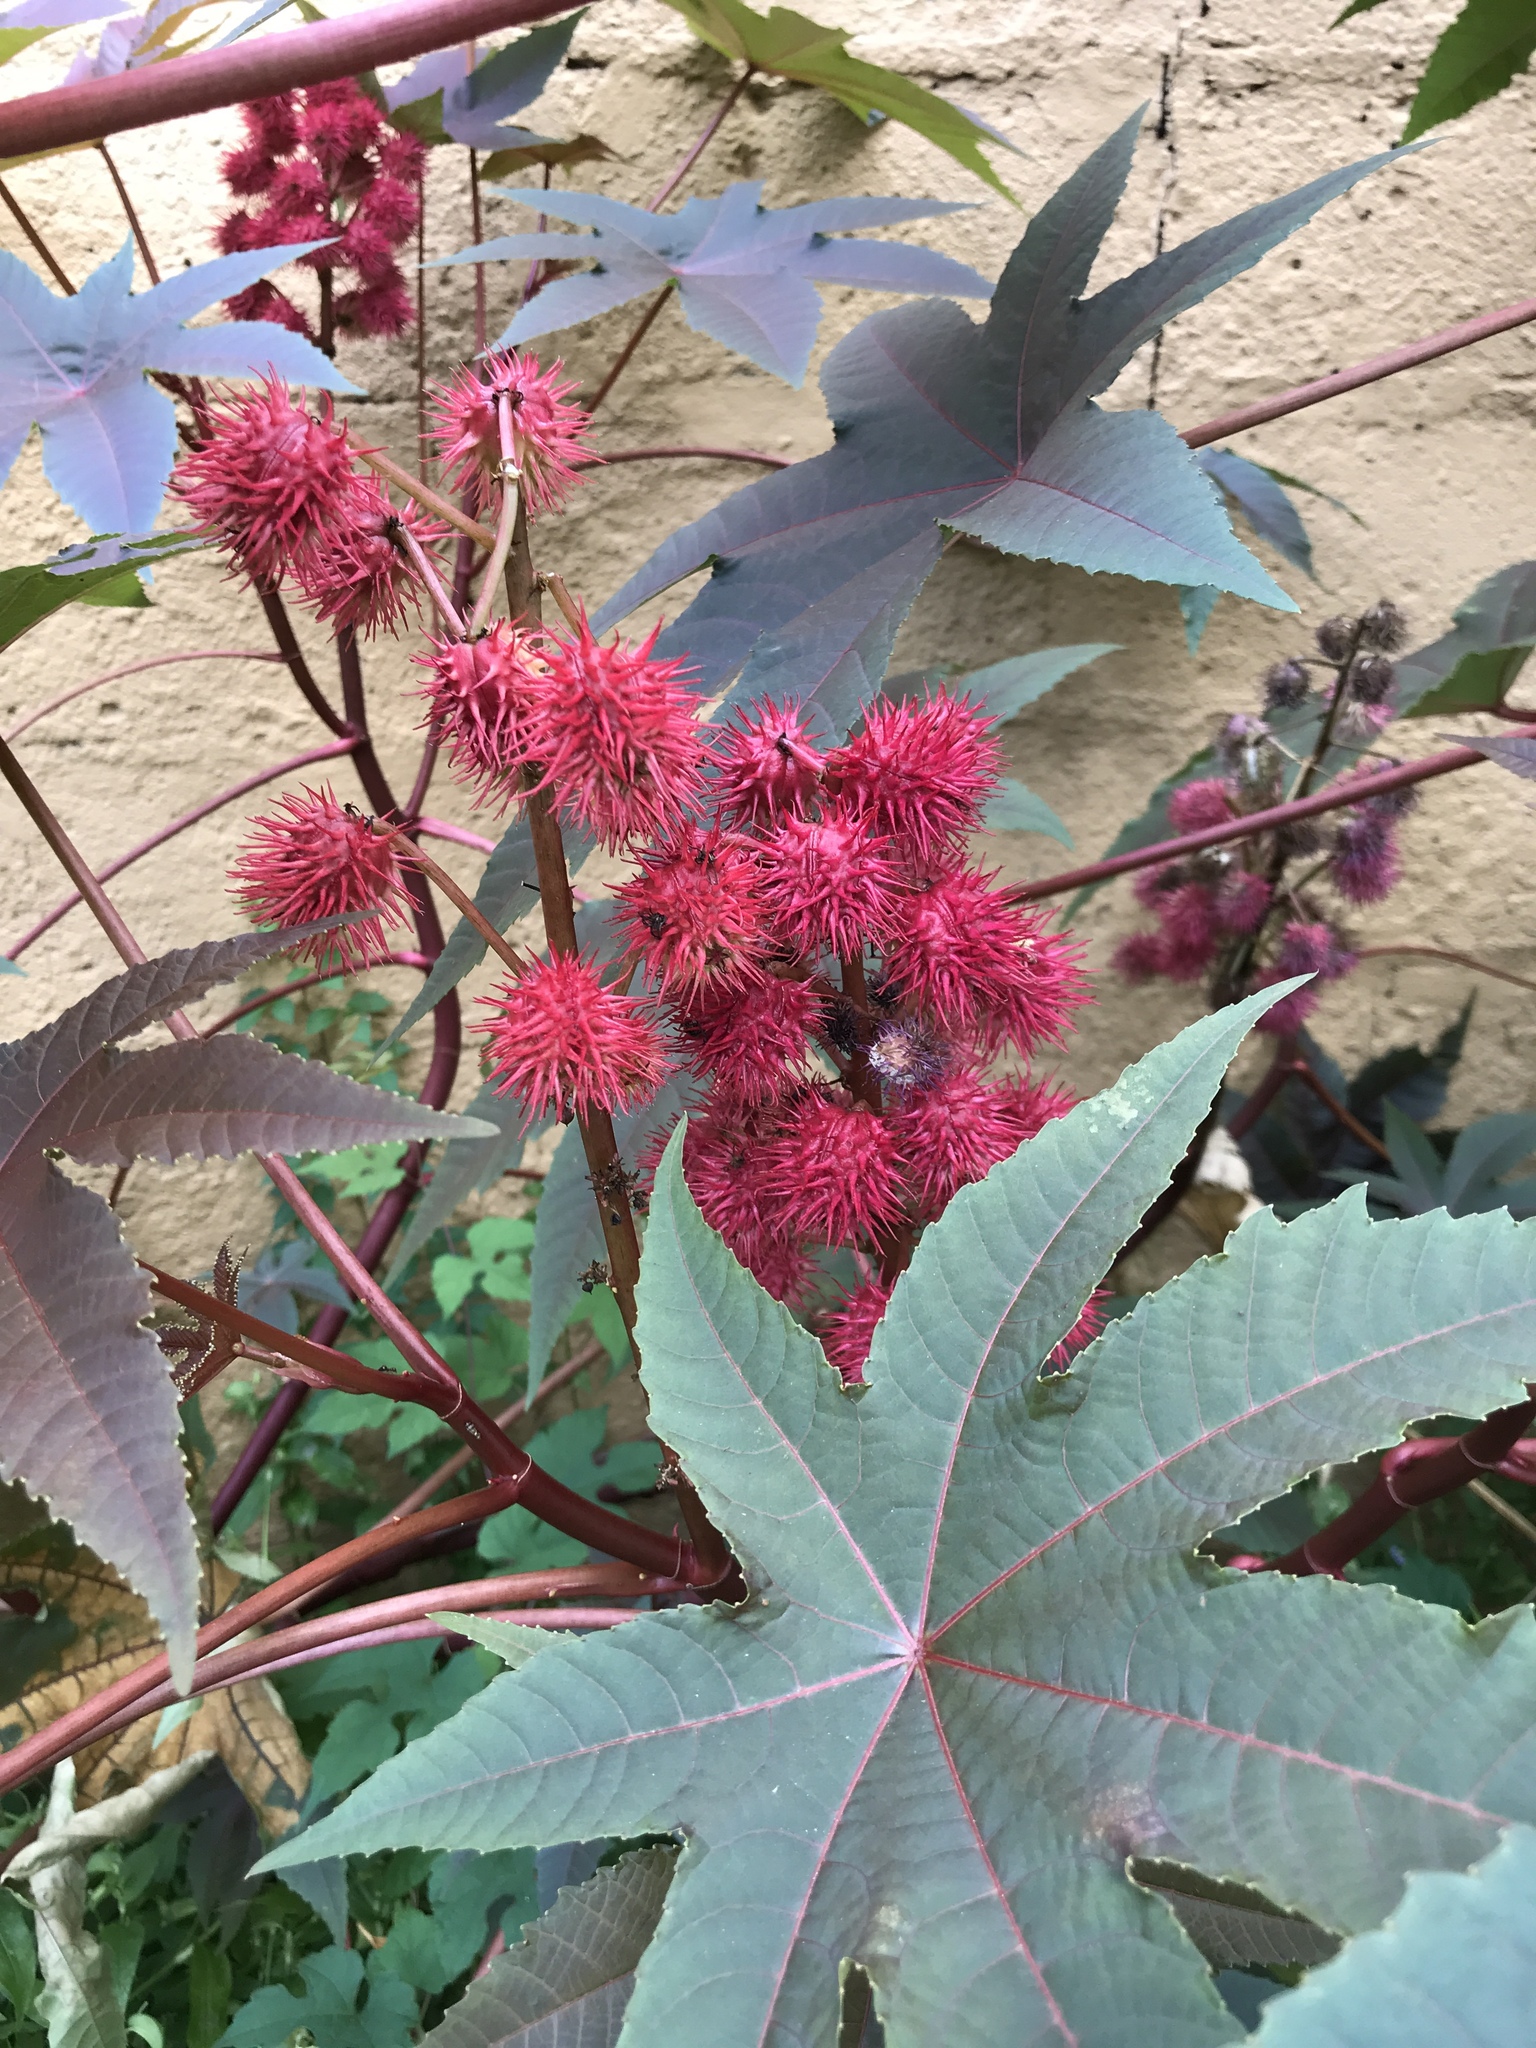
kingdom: Plantae
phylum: Tracheophyta
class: Magnoliopsida
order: Malpighiales
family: Euphorbiaceae
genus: Ricinus
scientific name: Ricinus communis
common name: Castor-oil-plant
